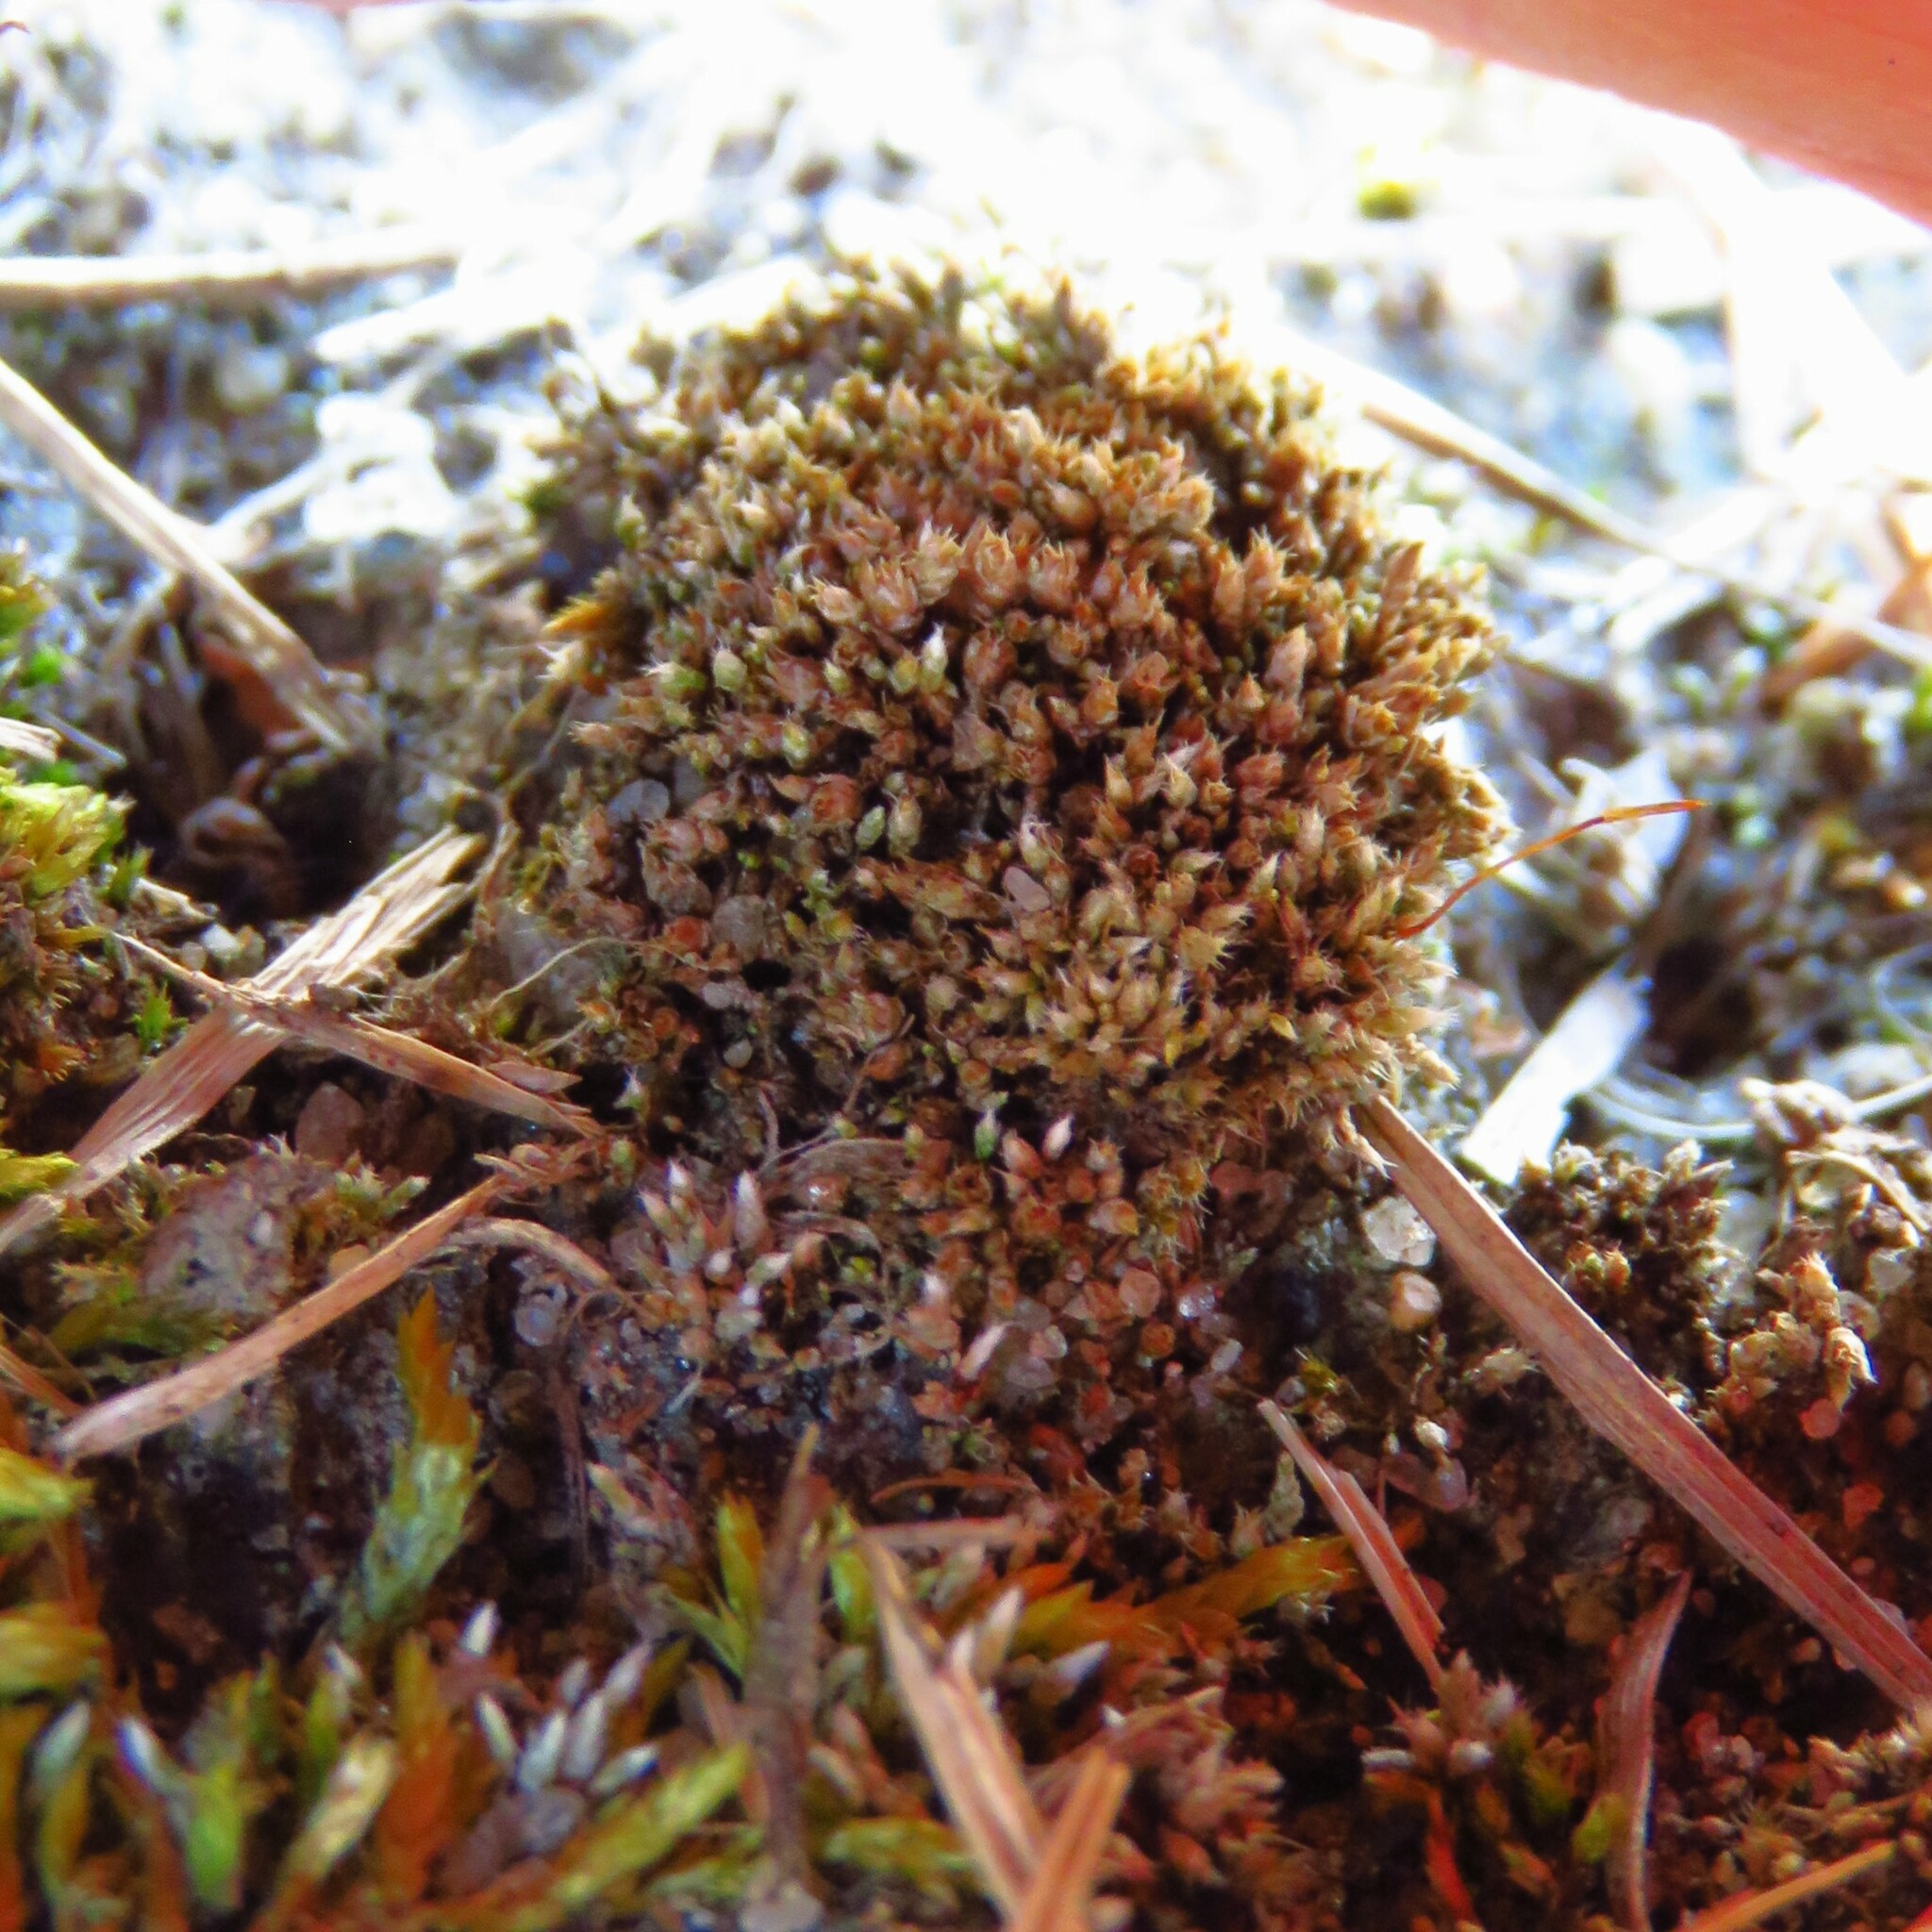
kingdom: Plantae
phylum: Bryophyta
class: Bryopsida
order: Bryales
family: Bryaceae
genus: Bryum
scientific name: Bryum argenteum
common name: Silver-moss
